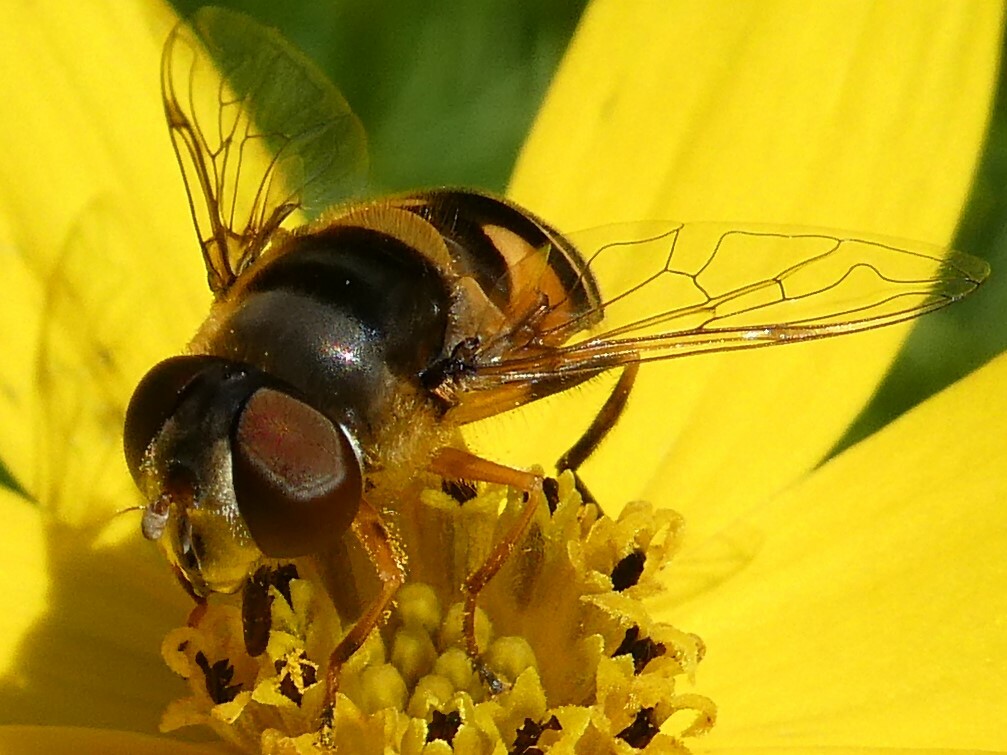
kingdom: Animalia
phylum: Arthropoda
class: Insecta
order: Diptera
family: Syrphidae
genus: Eristalis
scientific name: Eristalis transversa
